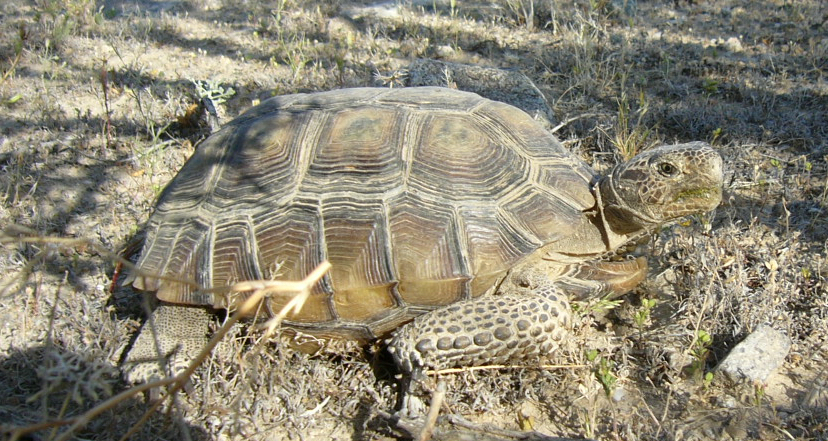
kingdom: Animalia
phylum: Chordata
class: Testudines
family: Testudinidae
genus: Gopherus
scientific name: Gopherus agassizii
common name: Mojave desert tortoise
